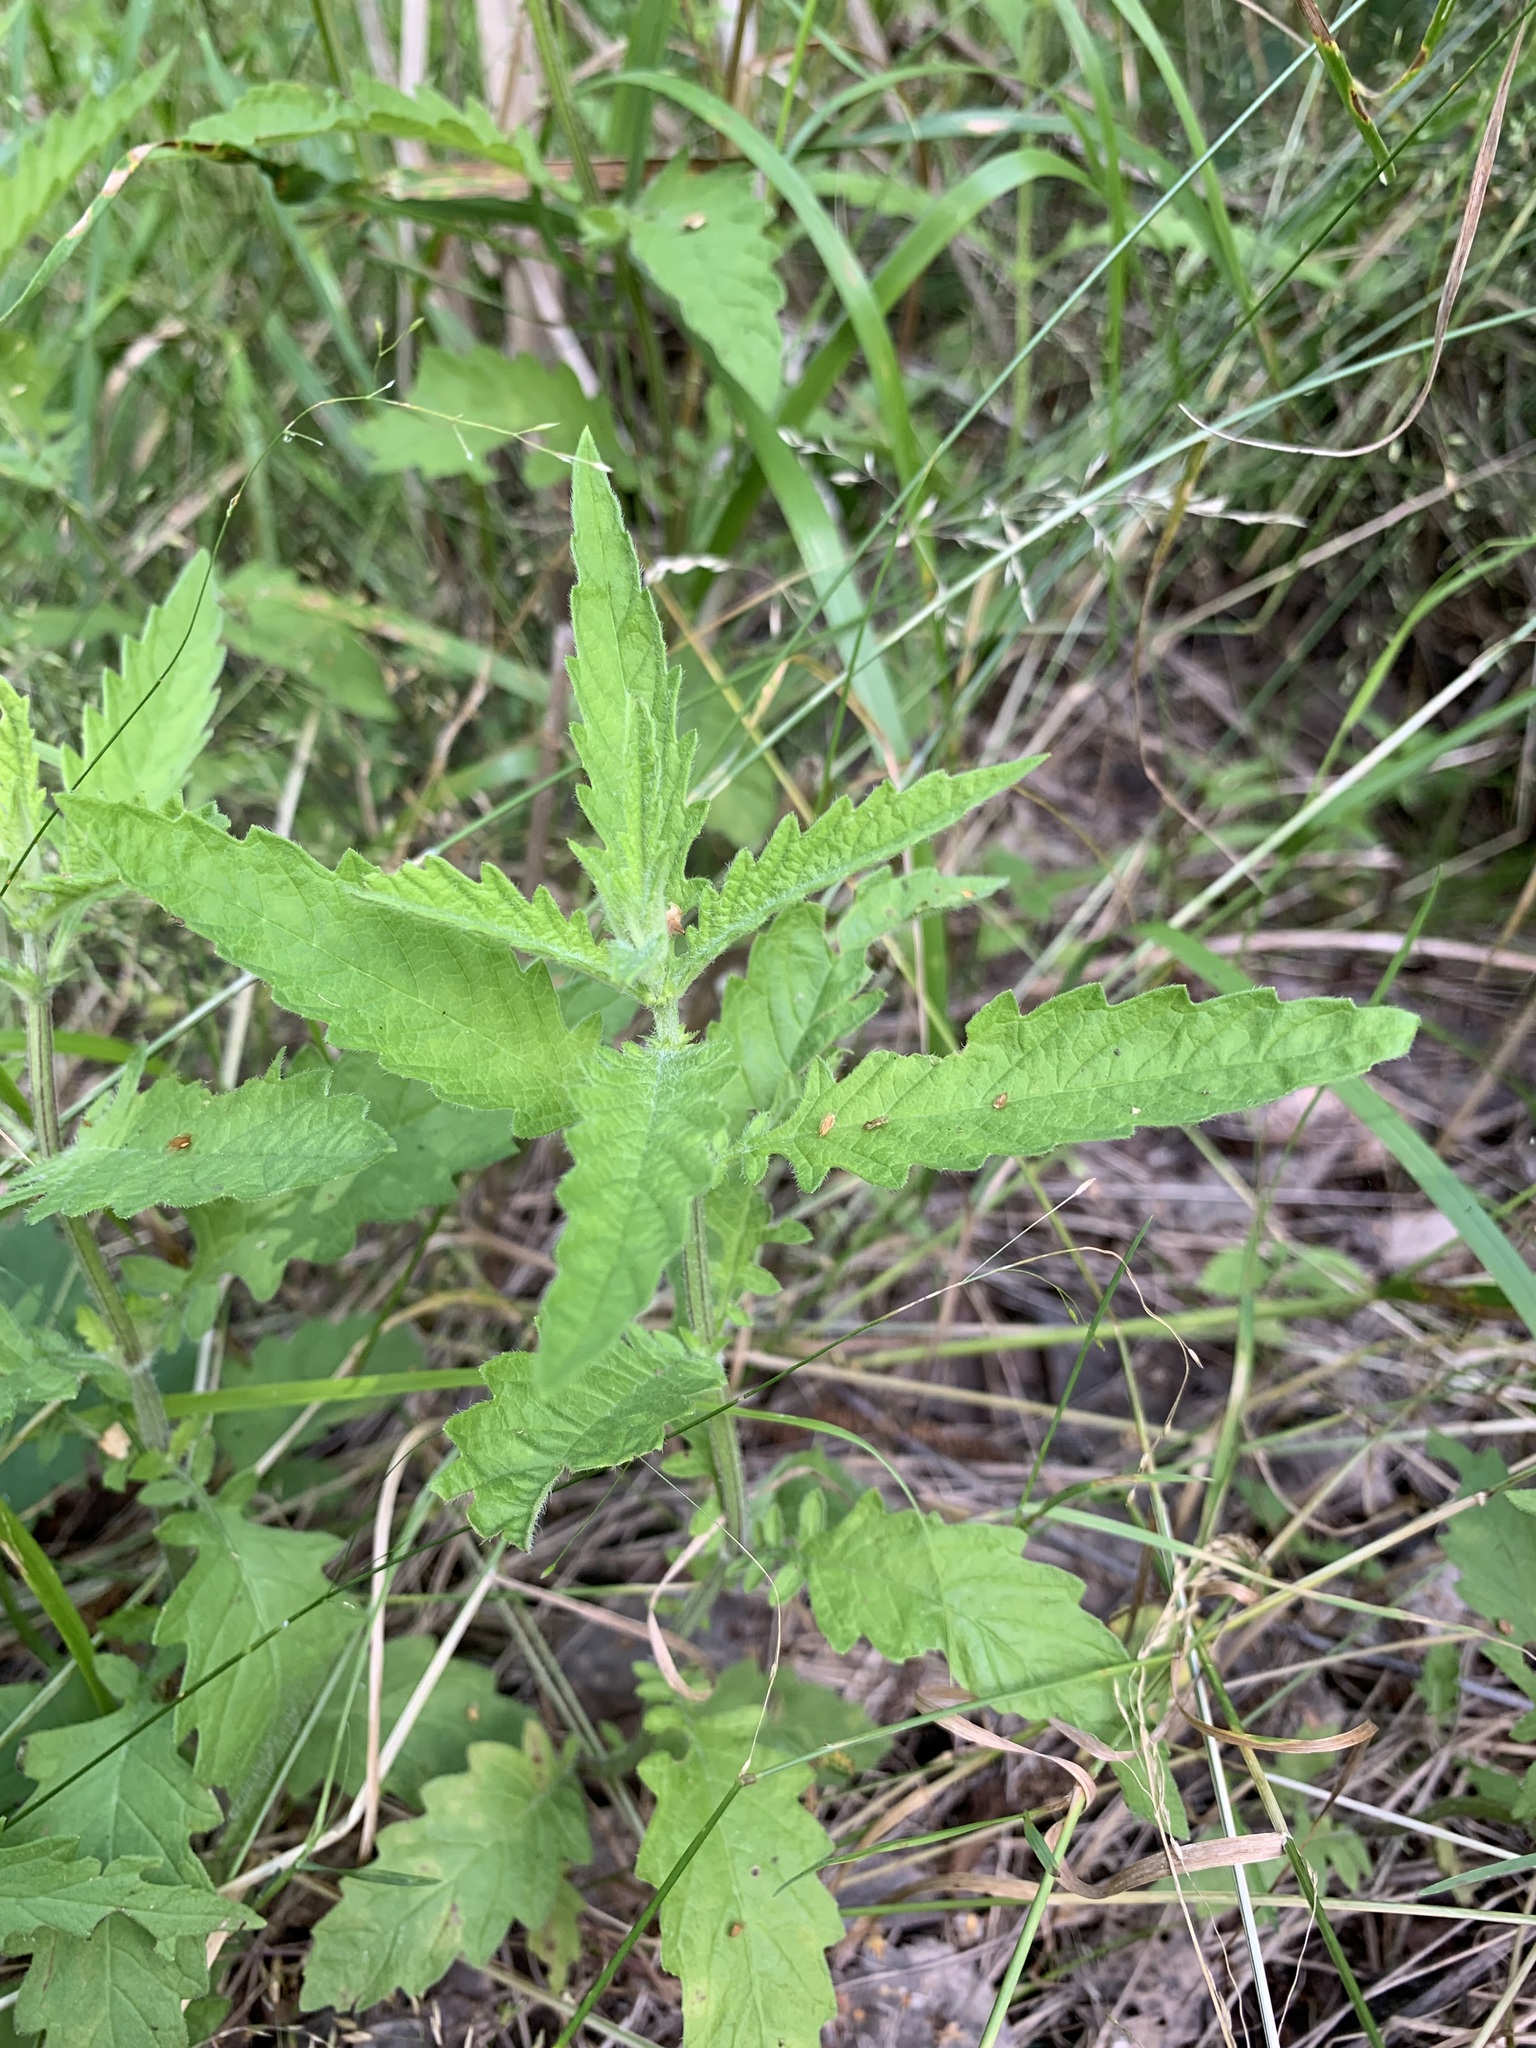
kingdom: Plantae
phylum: Tracheophyta
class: Magnoliopsida
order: Lamiales
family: Lamiaceae
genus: Lycopus
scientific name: Lycopus europaeus
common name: European bugleweed
